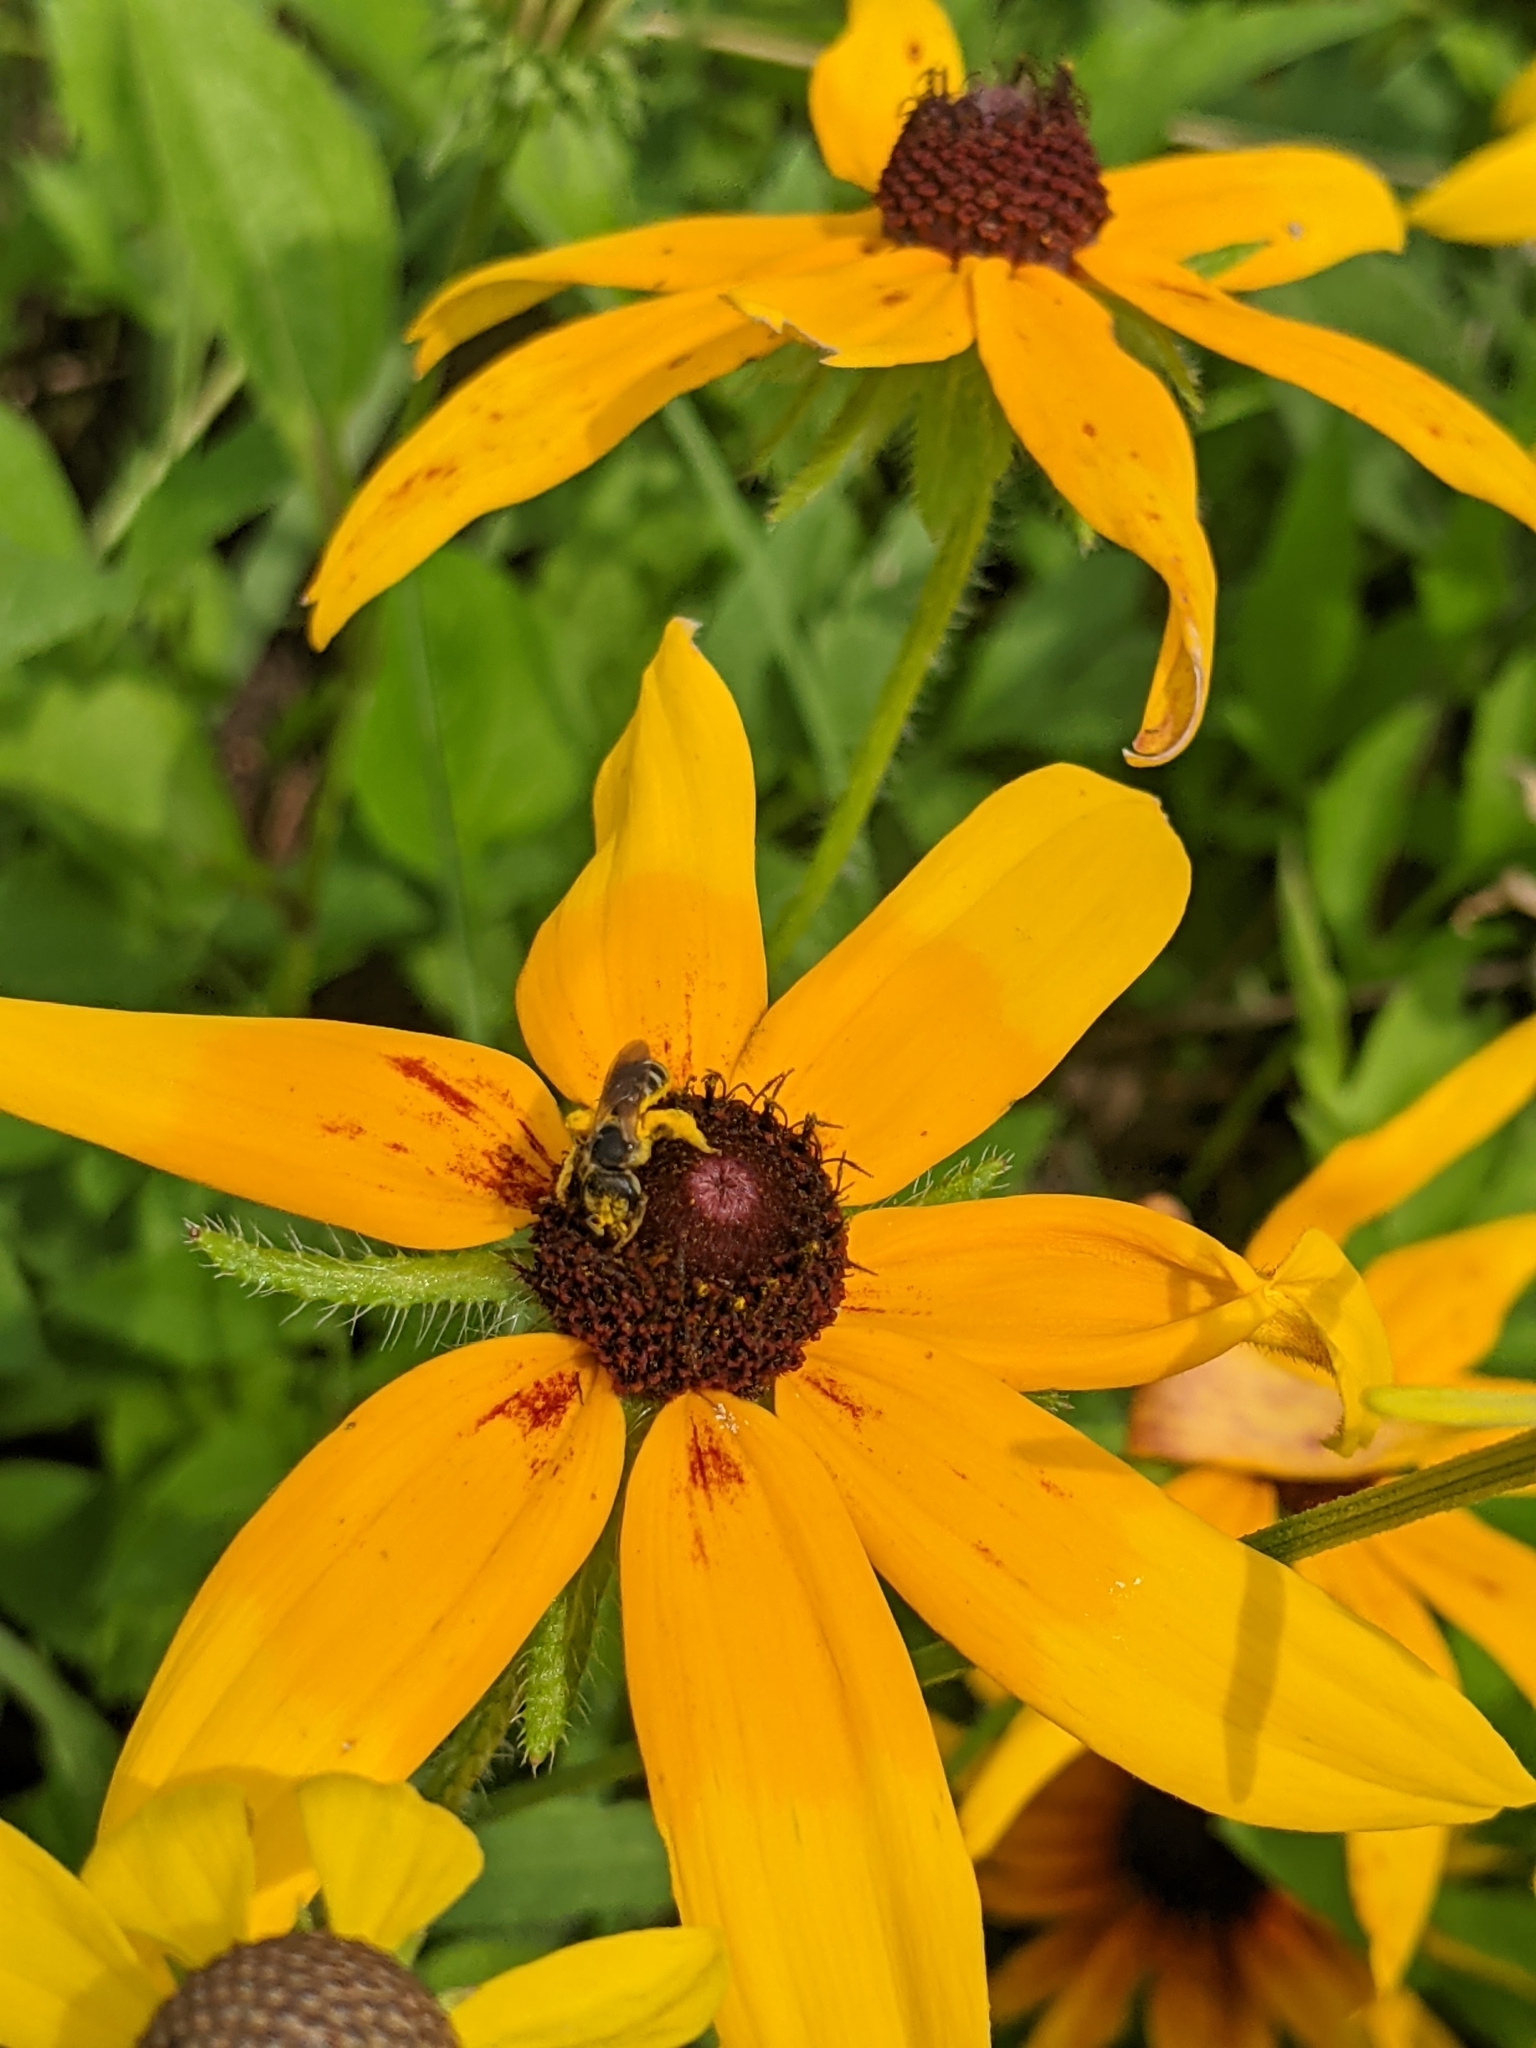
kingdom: Animalia
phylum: Arthropoda
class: Insecta
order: Hymenoptera
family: Halictidae
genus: Halictus
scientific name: Halictus ligatus
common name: Ligated furrow bee
